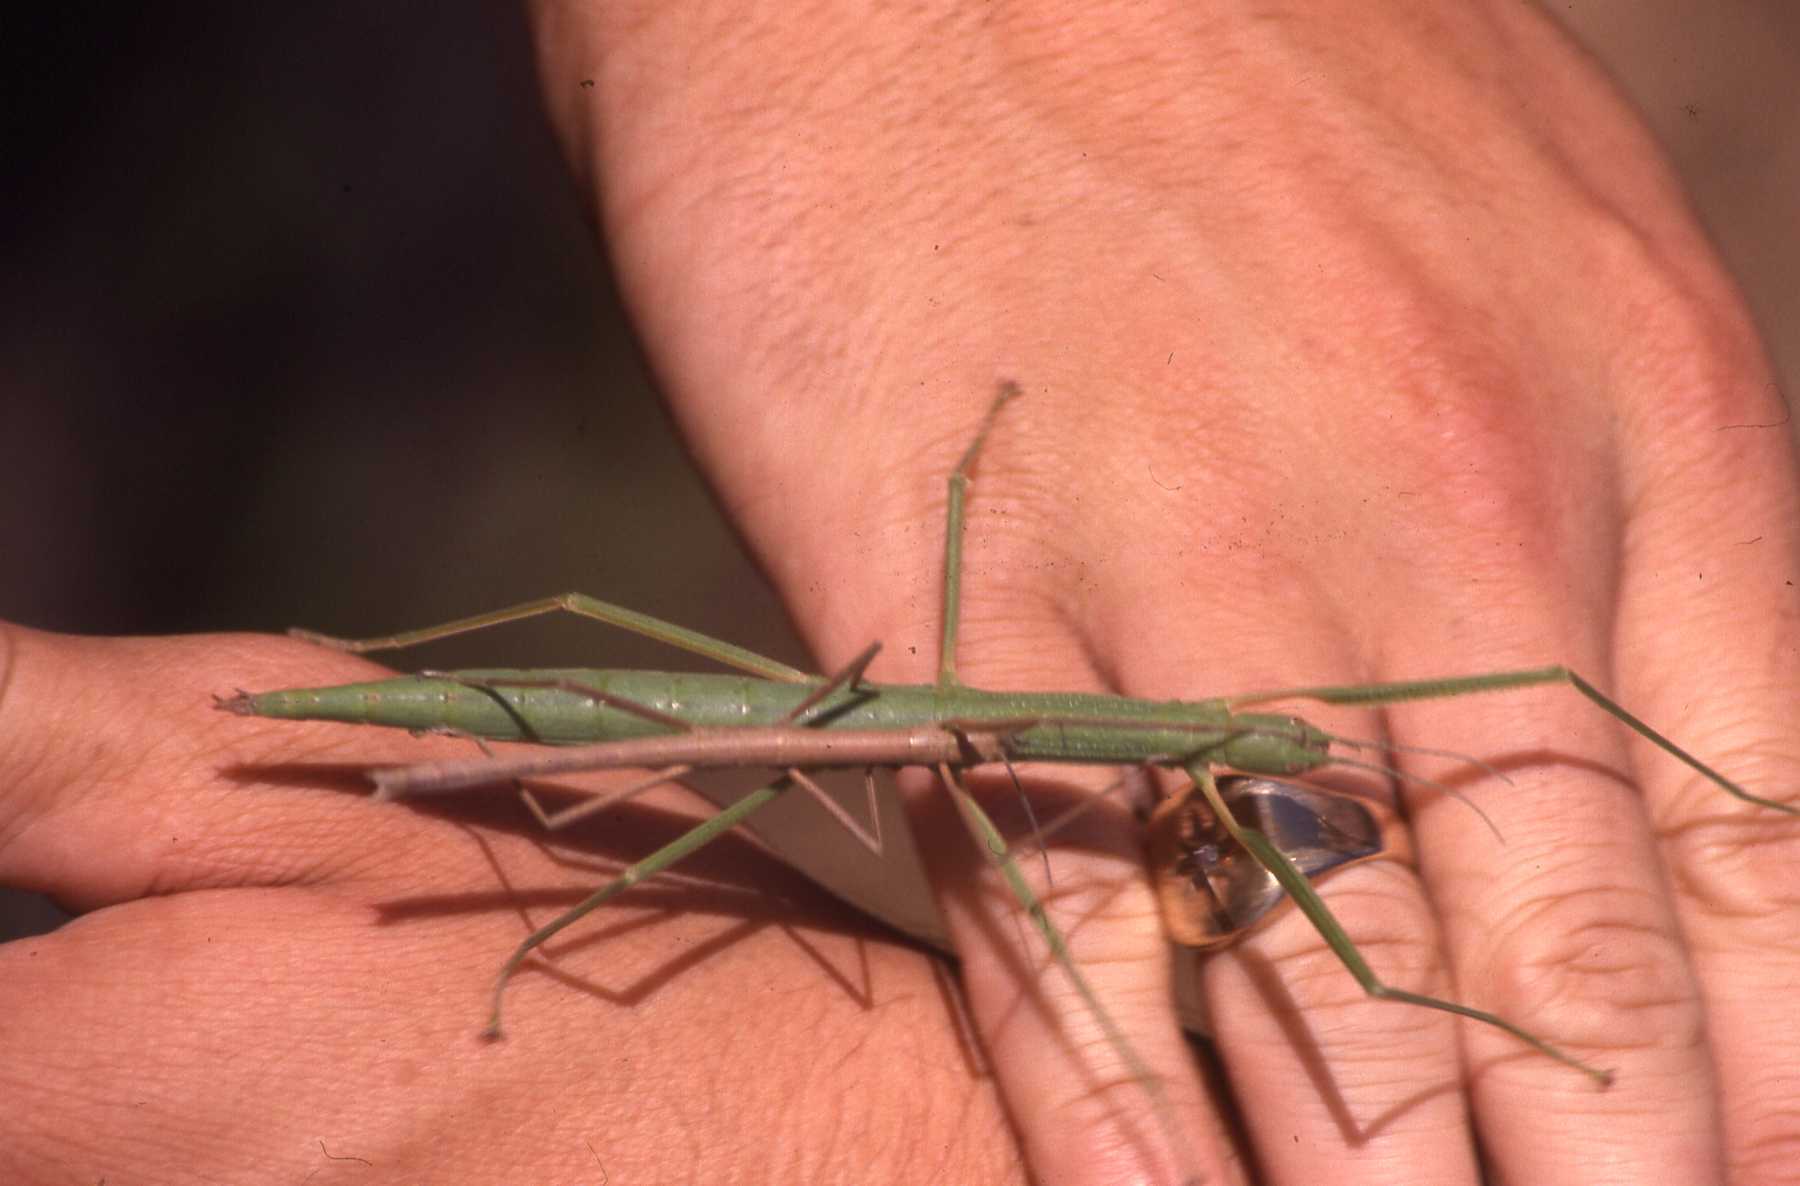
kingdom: Animalia
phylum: Arthropoda
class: Insecta
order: Phasmida
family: Phasmatidae
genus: Apterograeffea
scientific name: Apterograeffea marshallae
